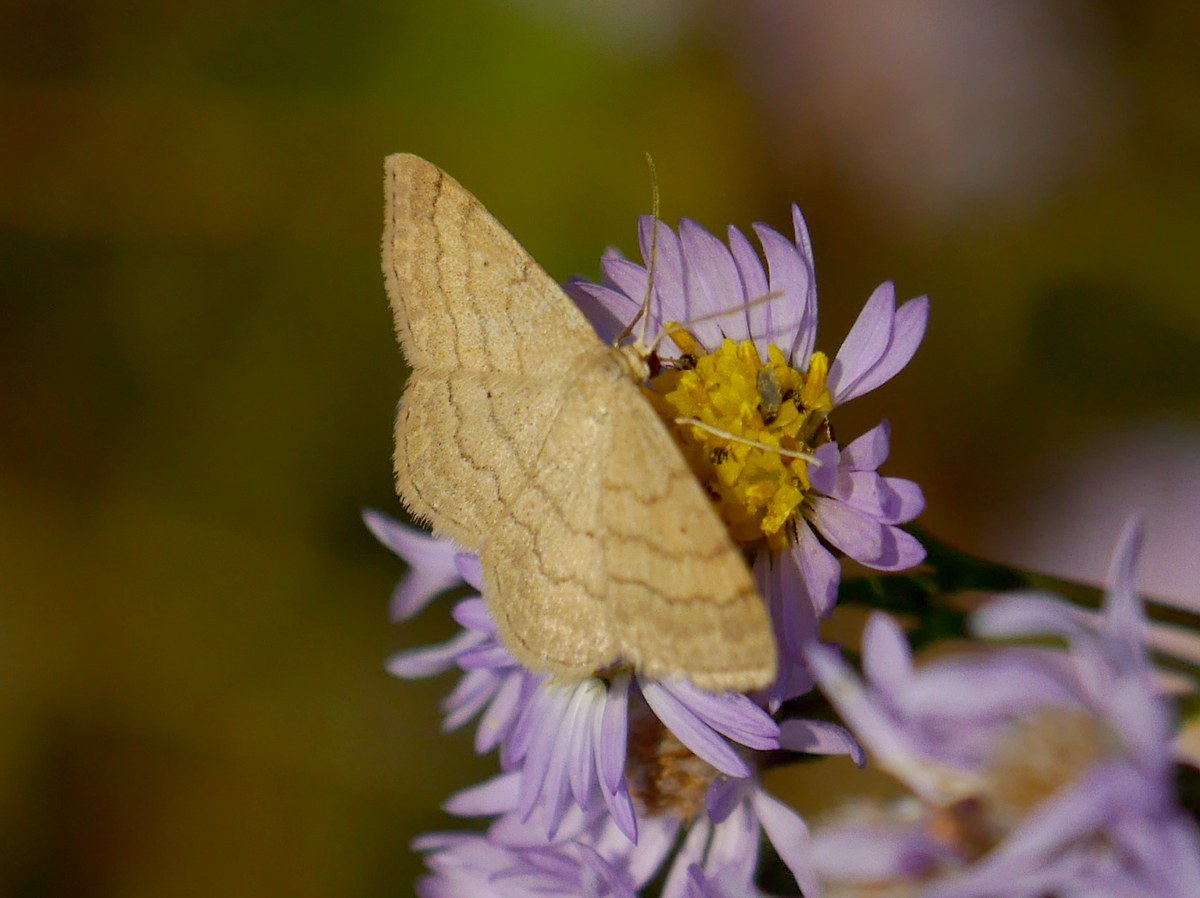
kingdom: Animalia
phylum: Arthropoda
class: Insecta
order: Lepidoptera
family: Geometridae
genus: Scopula
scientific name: Scopula rubiginata
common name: Tawny wave
